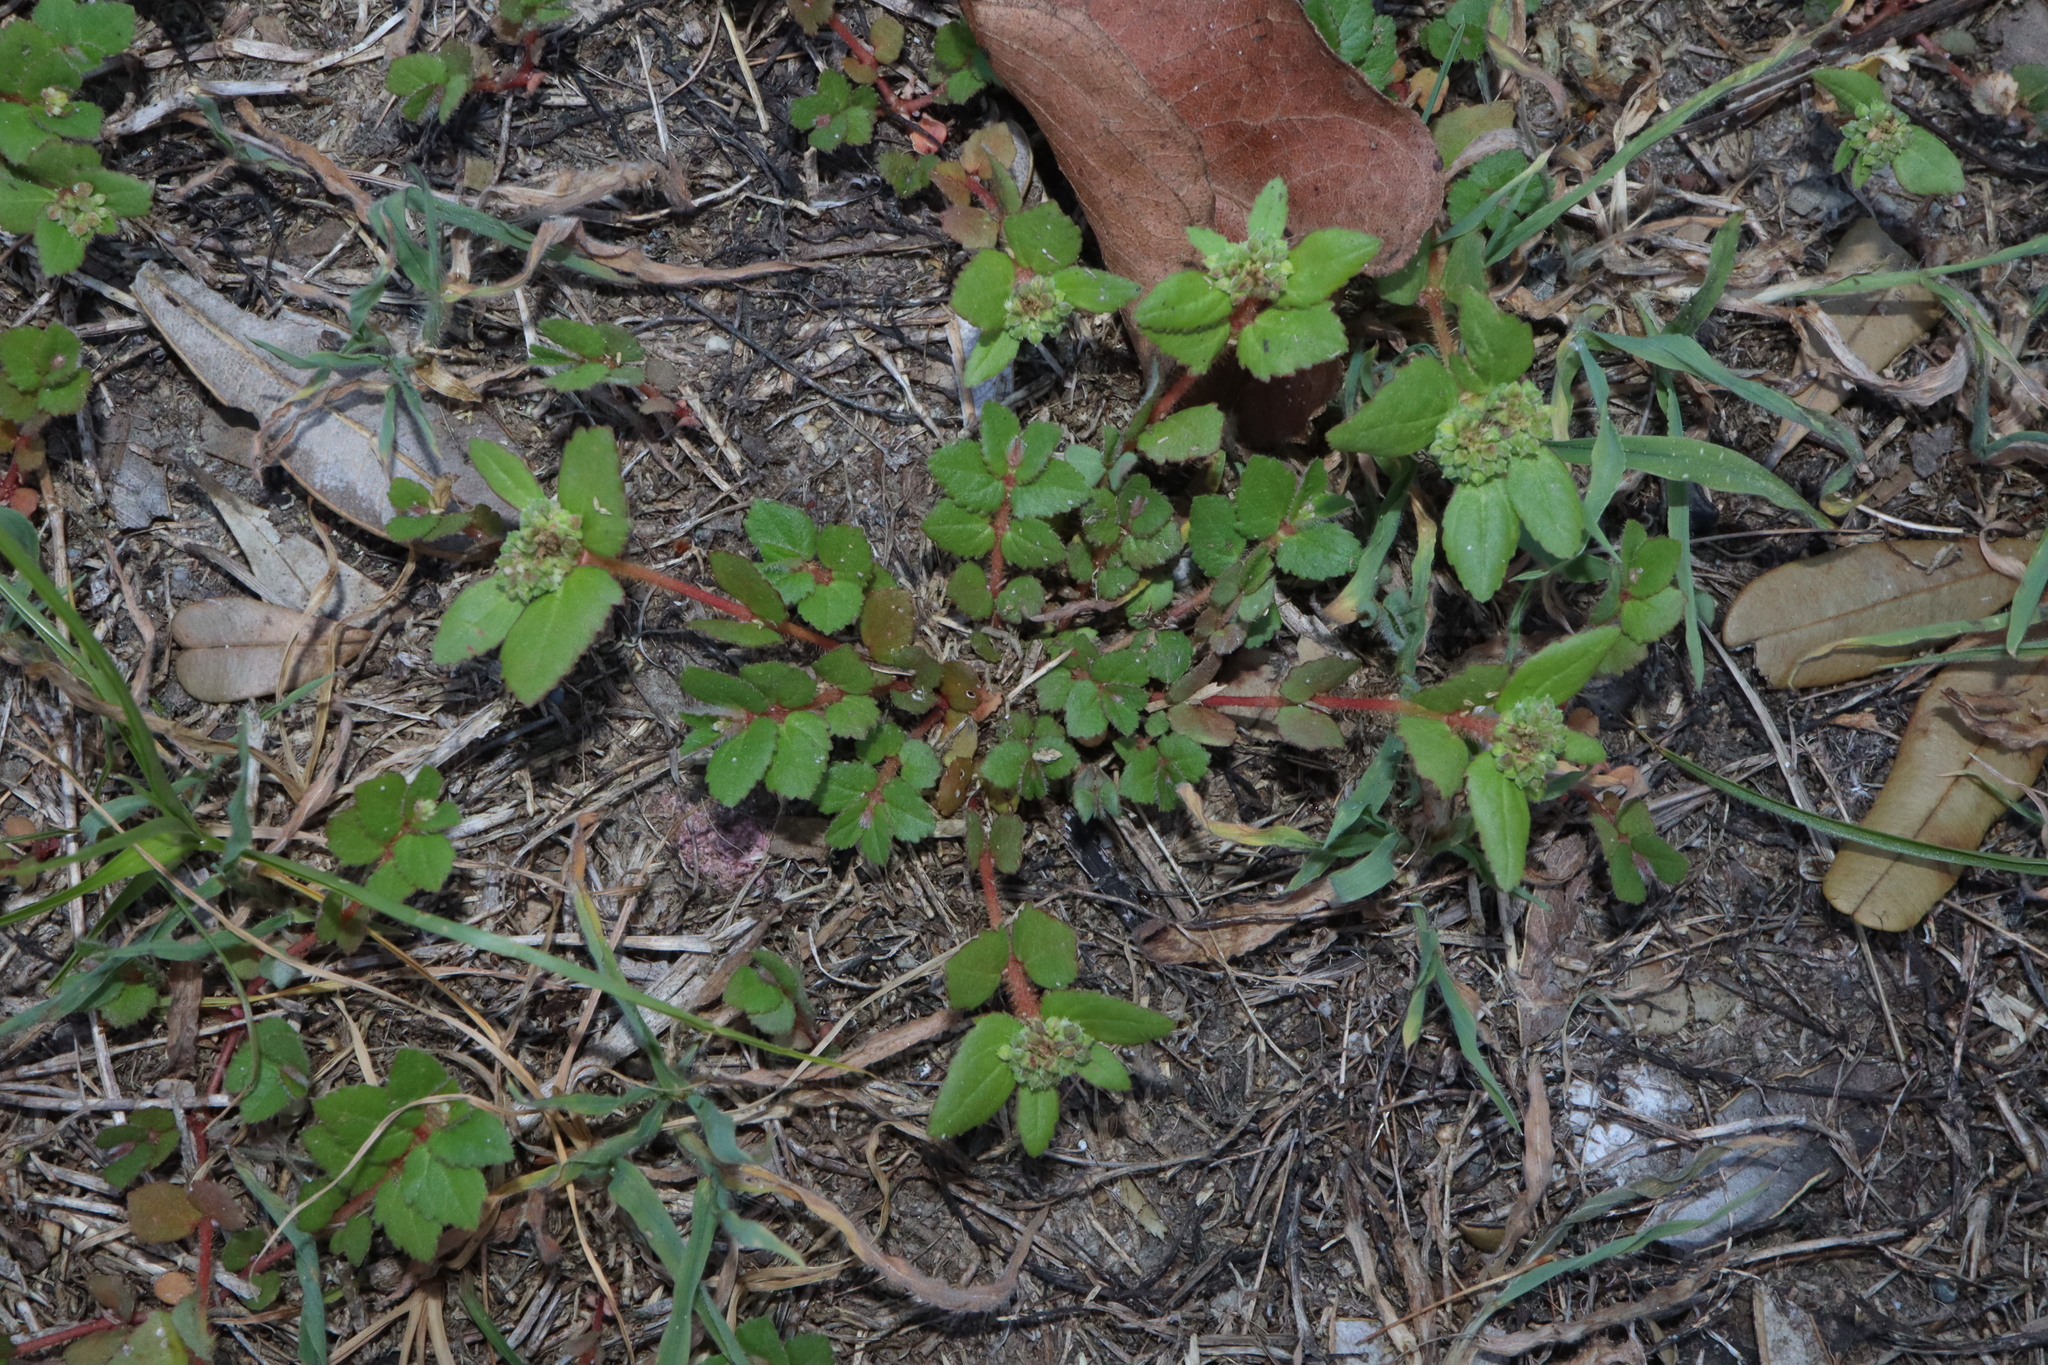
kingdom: Plantae
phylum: Tracheophyta
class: Magnoliopsida
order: Malpighiales
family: Euphorbiaceae
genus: Euphorbia
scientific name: Euphorbia ophthalmica
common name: Florida hammock sandmat
